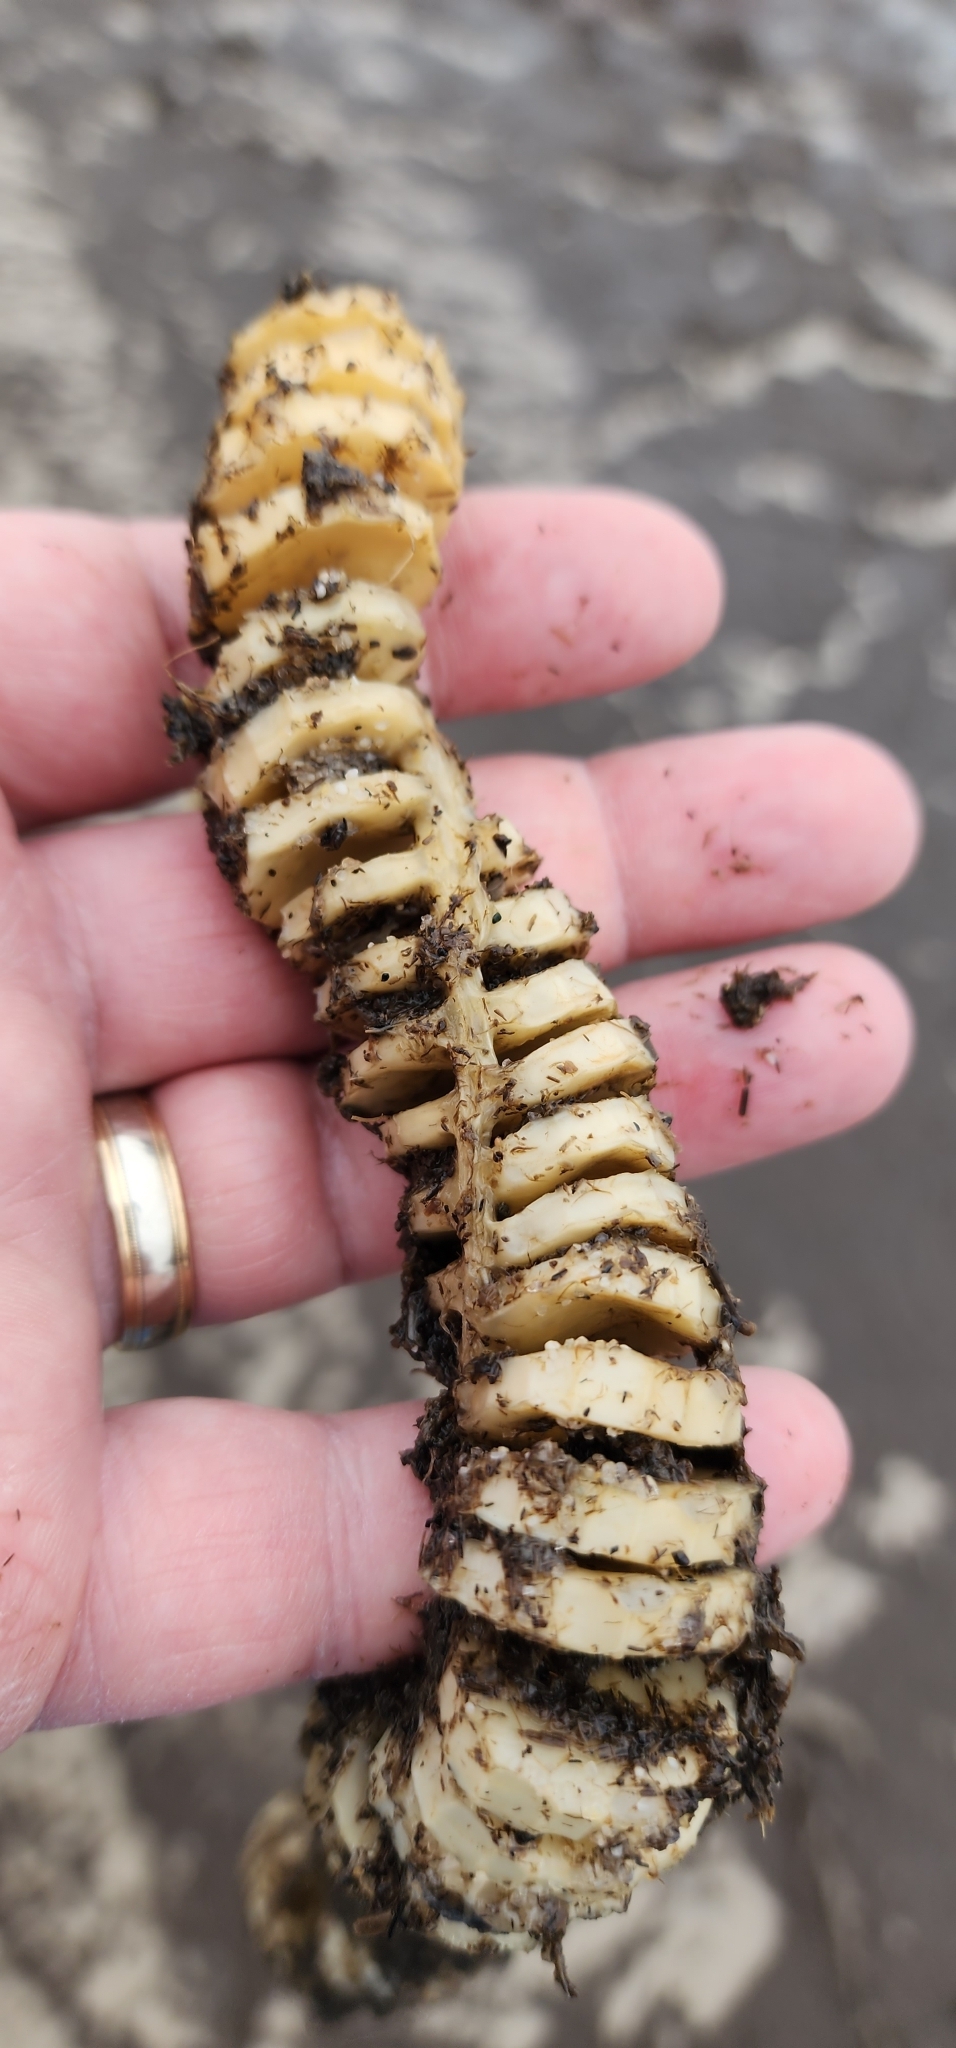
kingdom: Animalia
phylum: Mollusca
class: Gastropoda
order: Neogastropoda
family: Busyconidae
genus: Busycon
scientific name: Busycon carica
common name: Knobbed whelk
